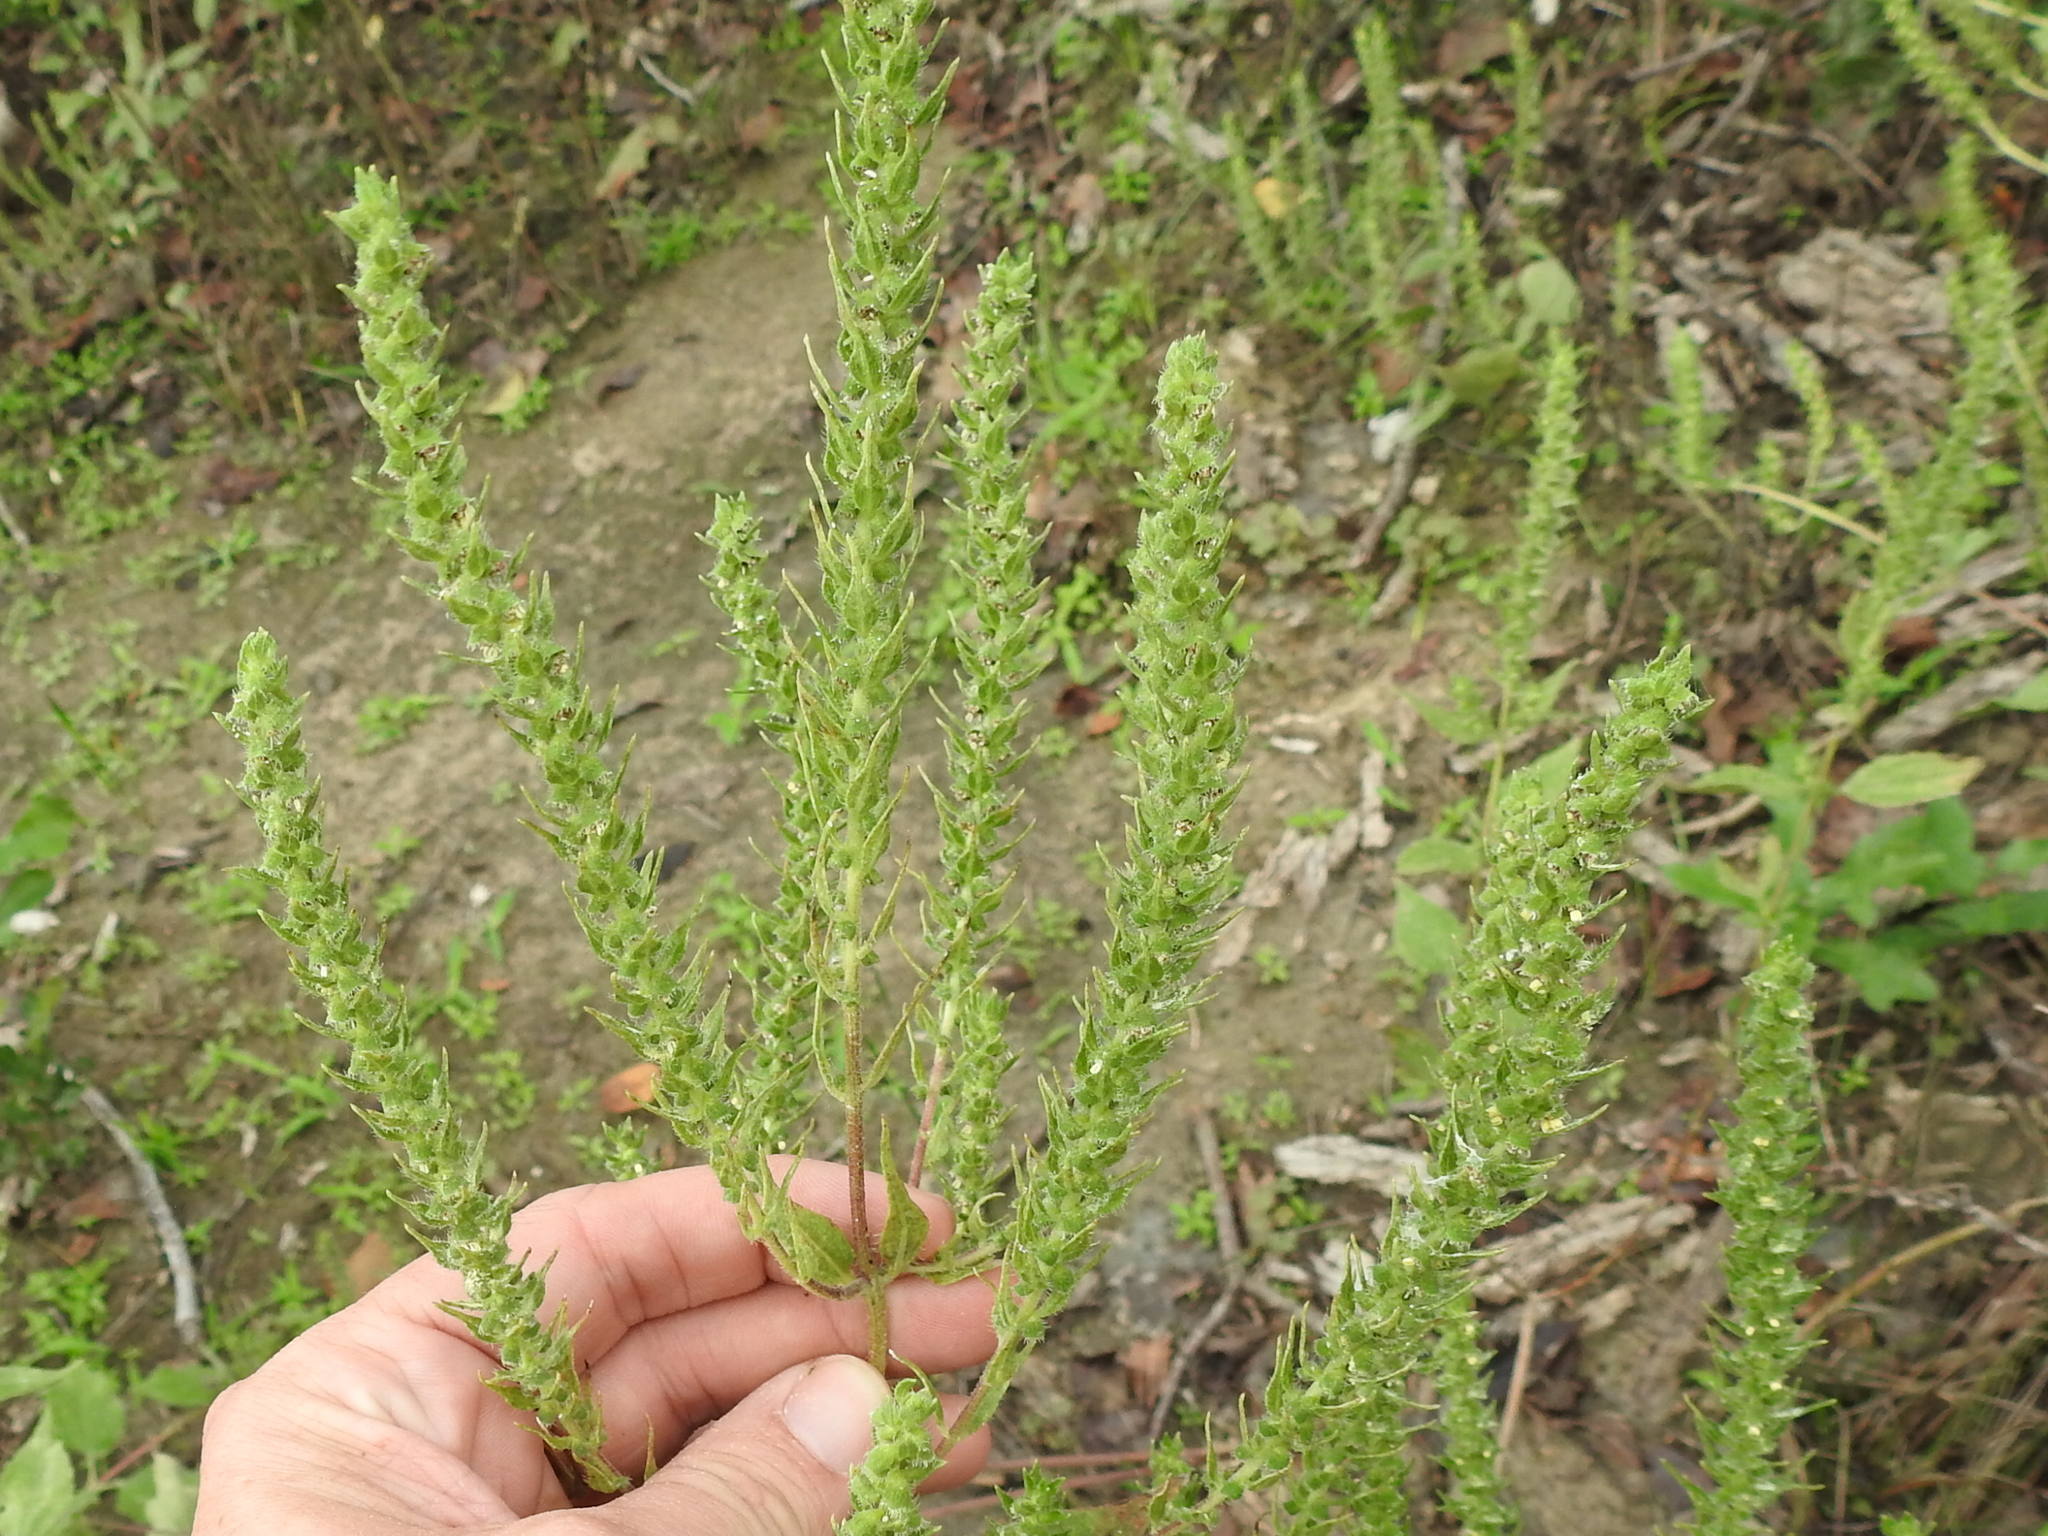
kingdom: Plantae
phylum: Tracheophyta
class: Magnoliopsida
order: Asterales
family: Asteraceae
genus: Iva
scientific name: Iva annua
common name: Marsh-elder
